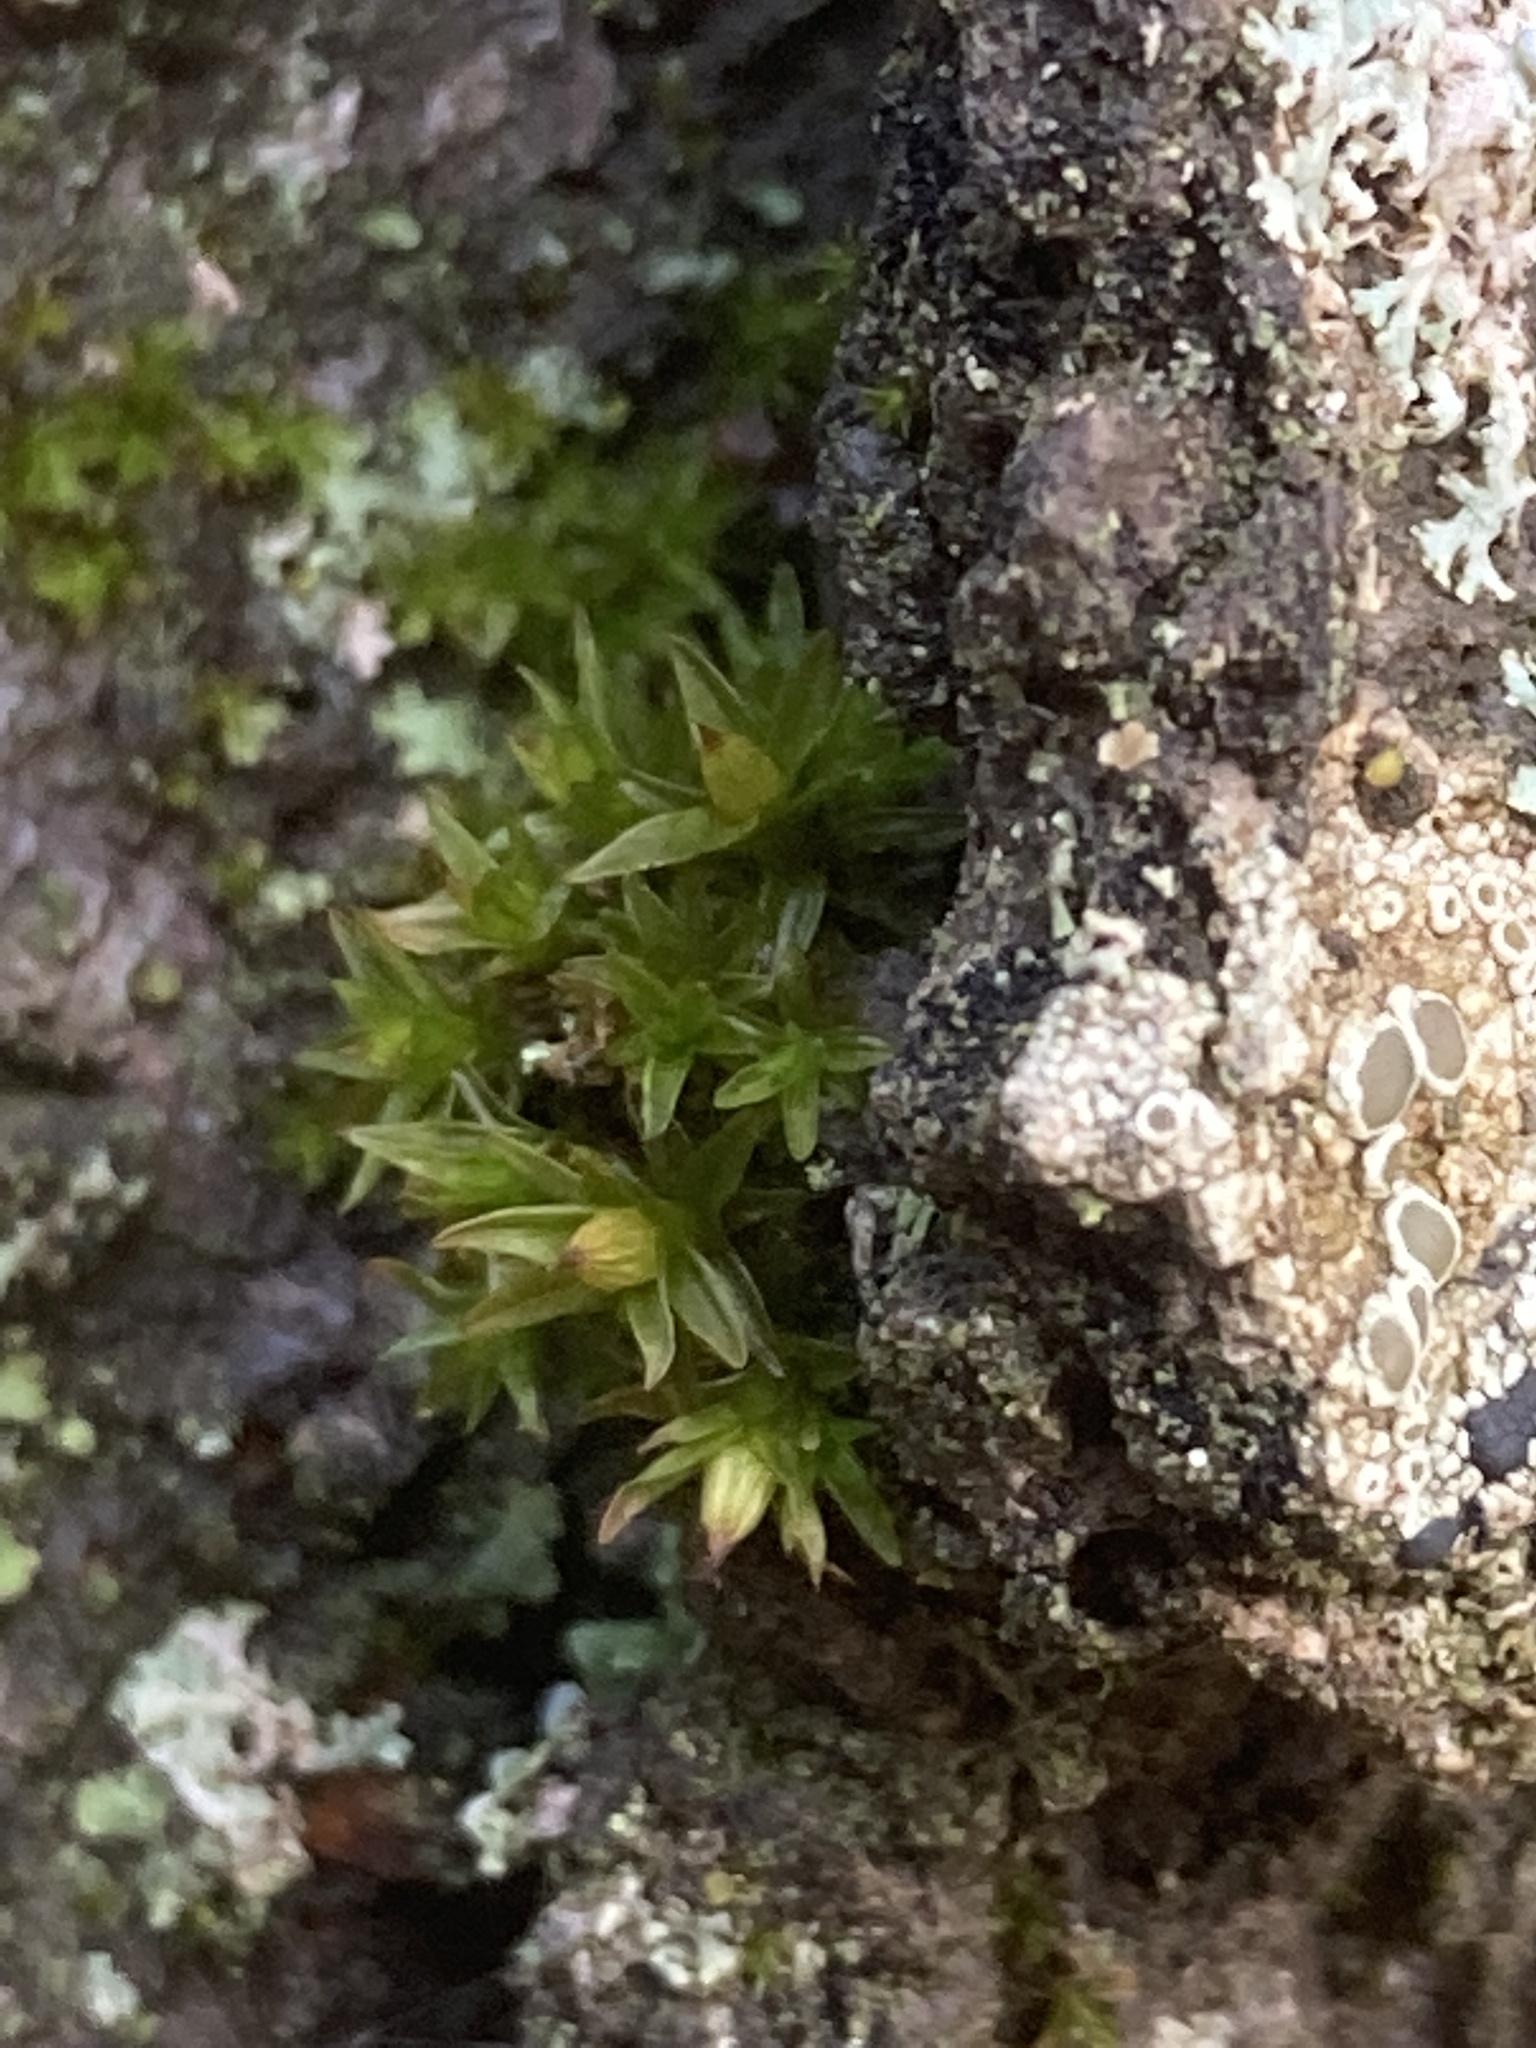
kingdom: Plantae
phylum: Bryophyta
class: Bryopsida
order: Orthotrichales
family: Orthotrichaceae
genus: Orthotrichum
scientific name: Orthotrichum diaphanum
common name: White-tipped bristle-moss
